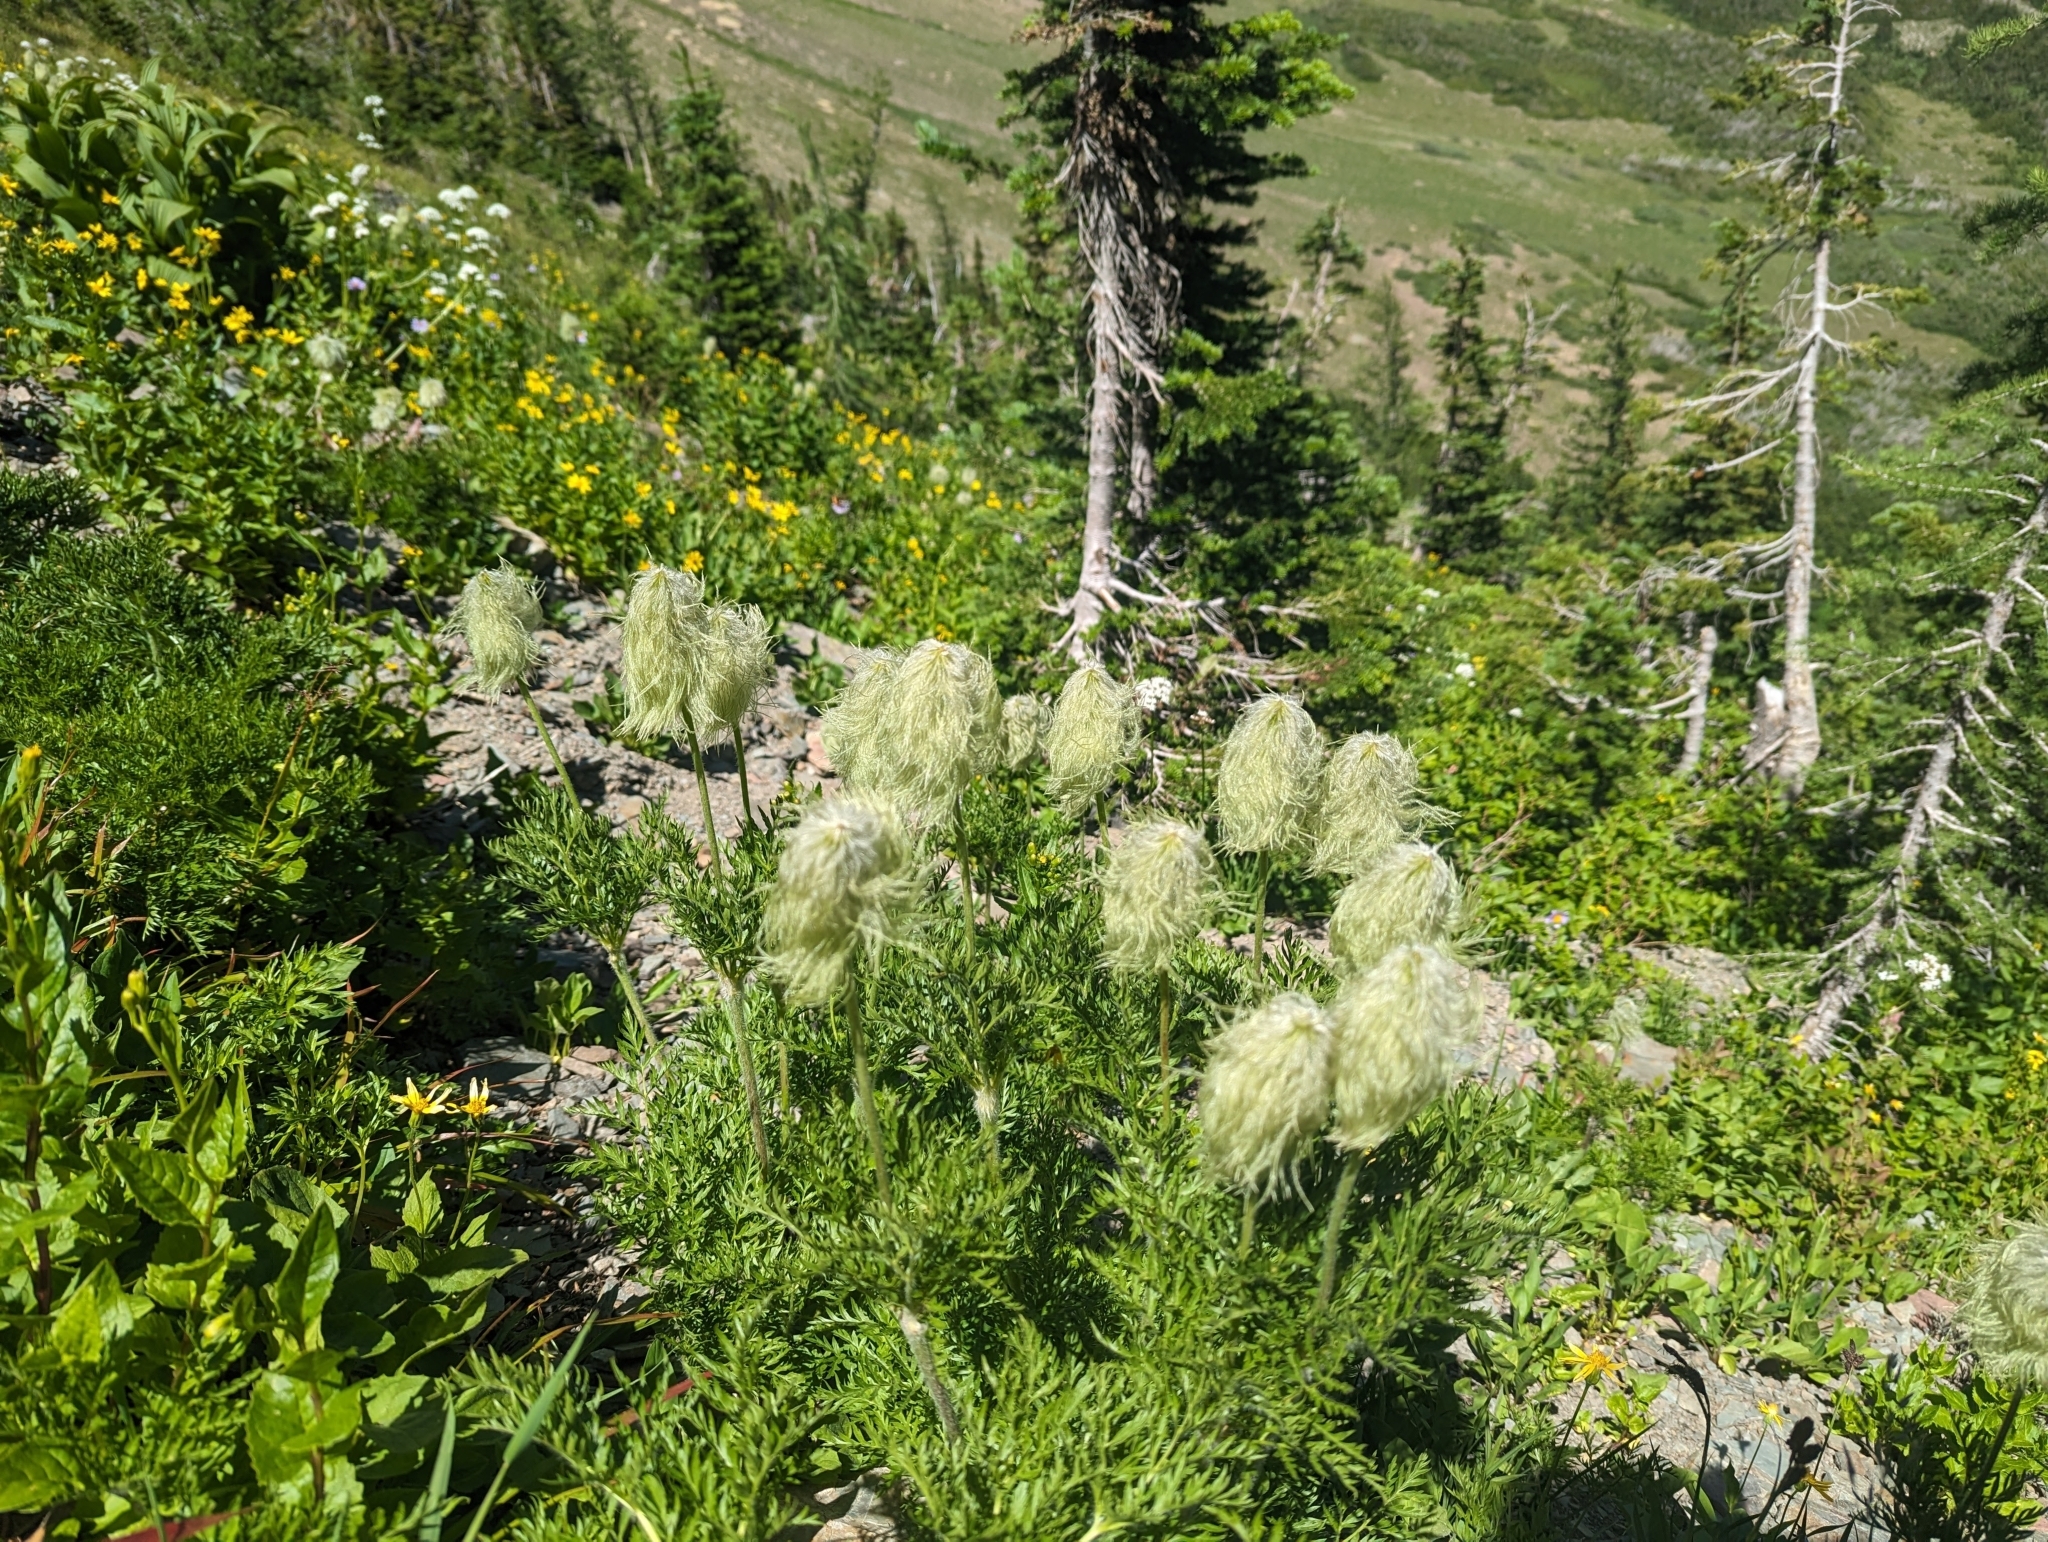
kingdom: Plantae
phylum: Tracheophyta
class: Magnoliopsida
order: Ranunculales
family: Ranunculaceae
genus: Pulsatilla
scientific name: Pulsatilla occidentalis
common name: Mountain pasqueflower
